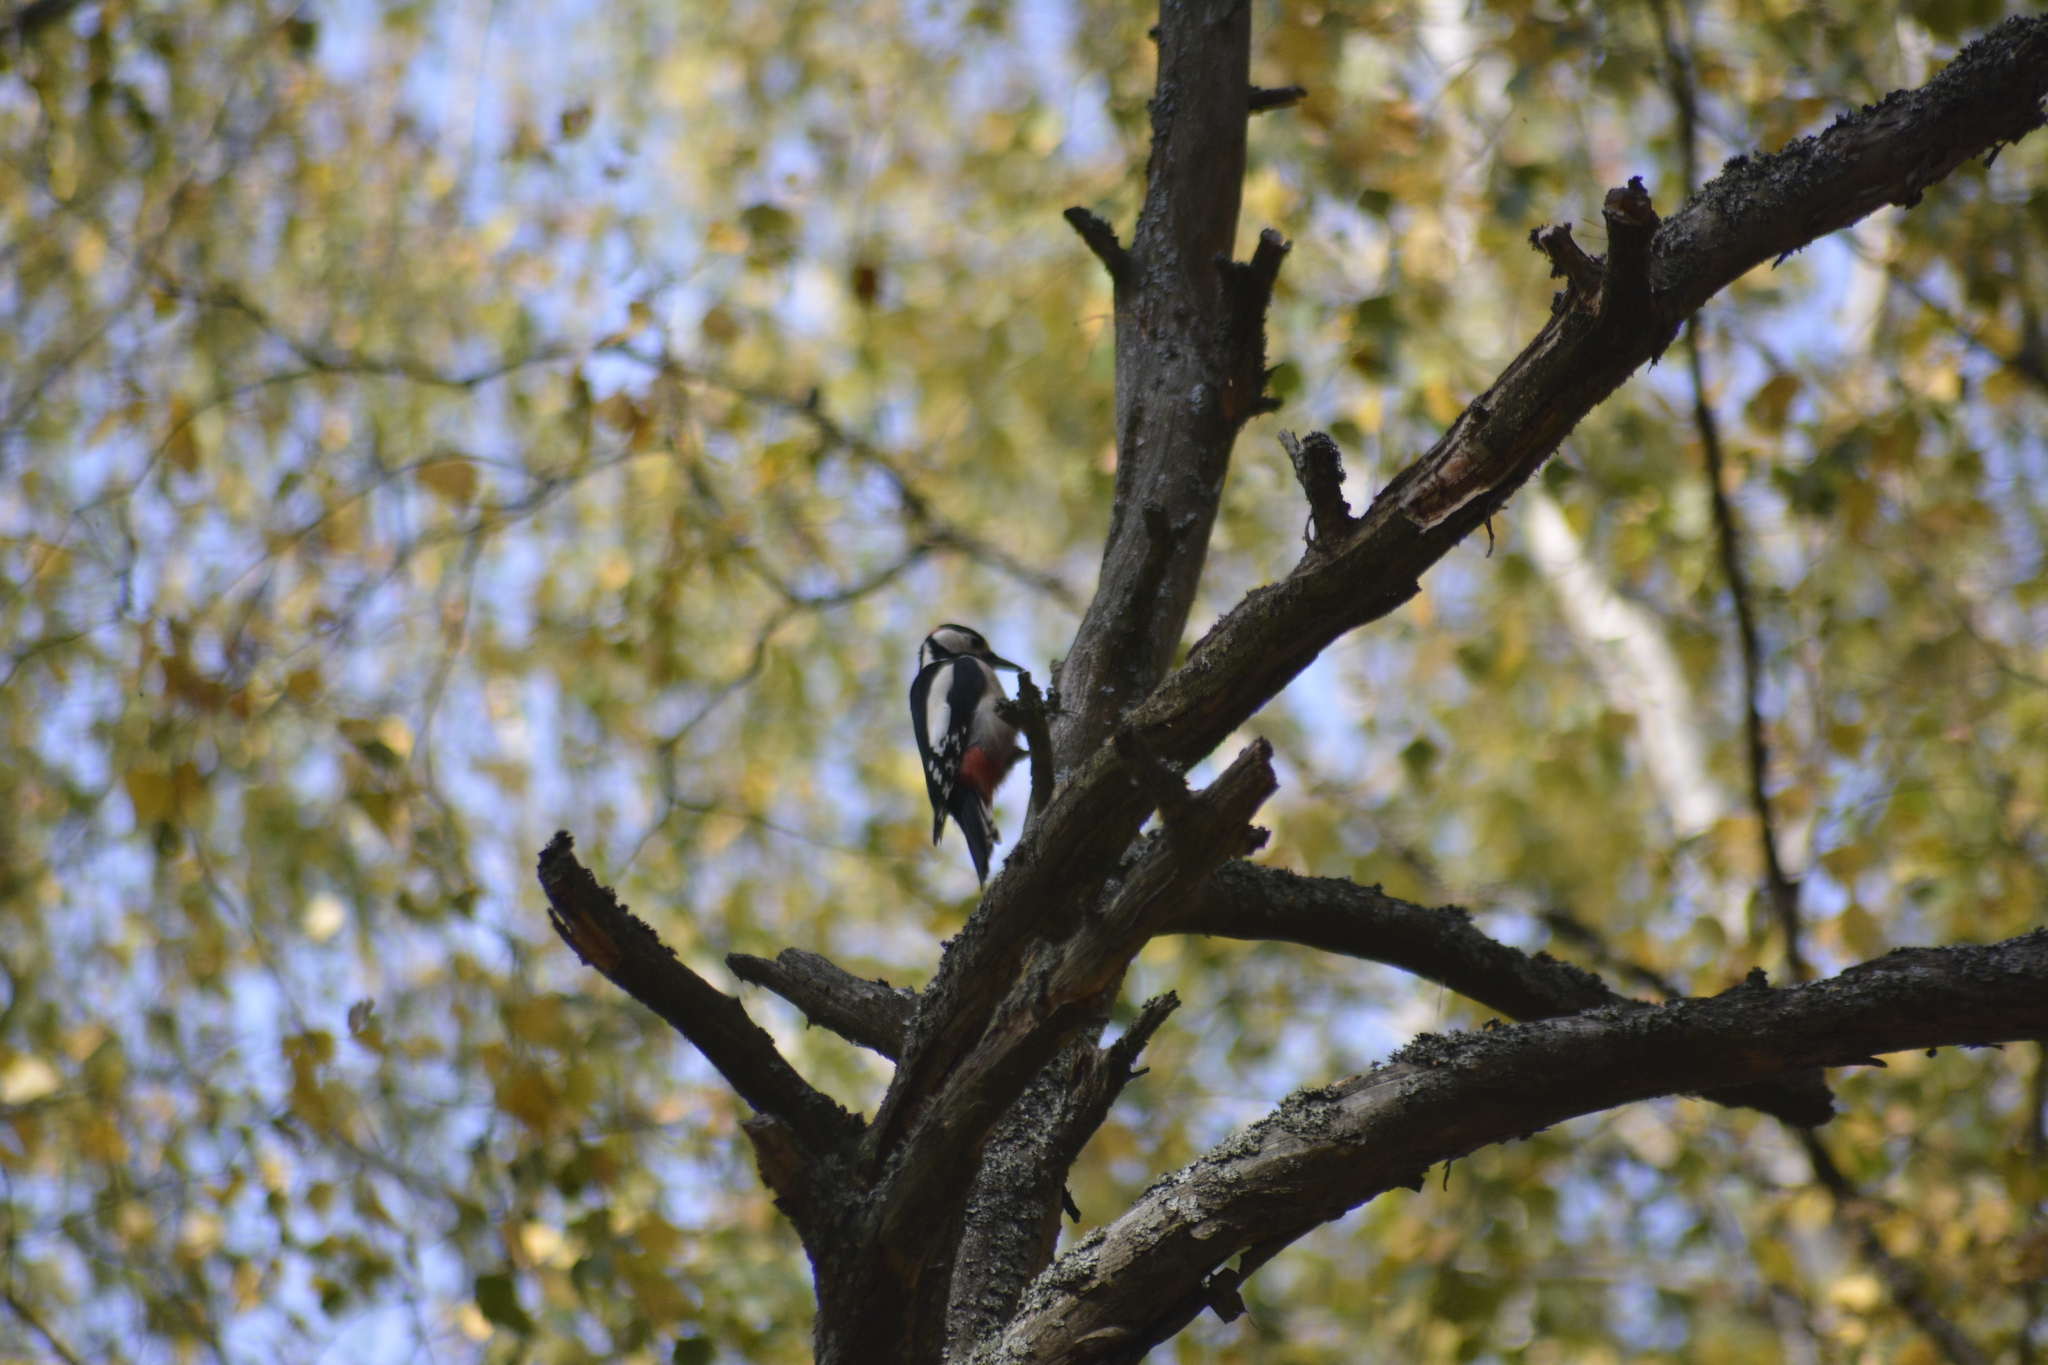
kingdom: Animalia
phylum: Chordata
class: Aves
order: Piciformes
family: Picidae
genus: Dendrocopos
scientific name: Dendrocopos major
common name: Great spotted woodpecker
